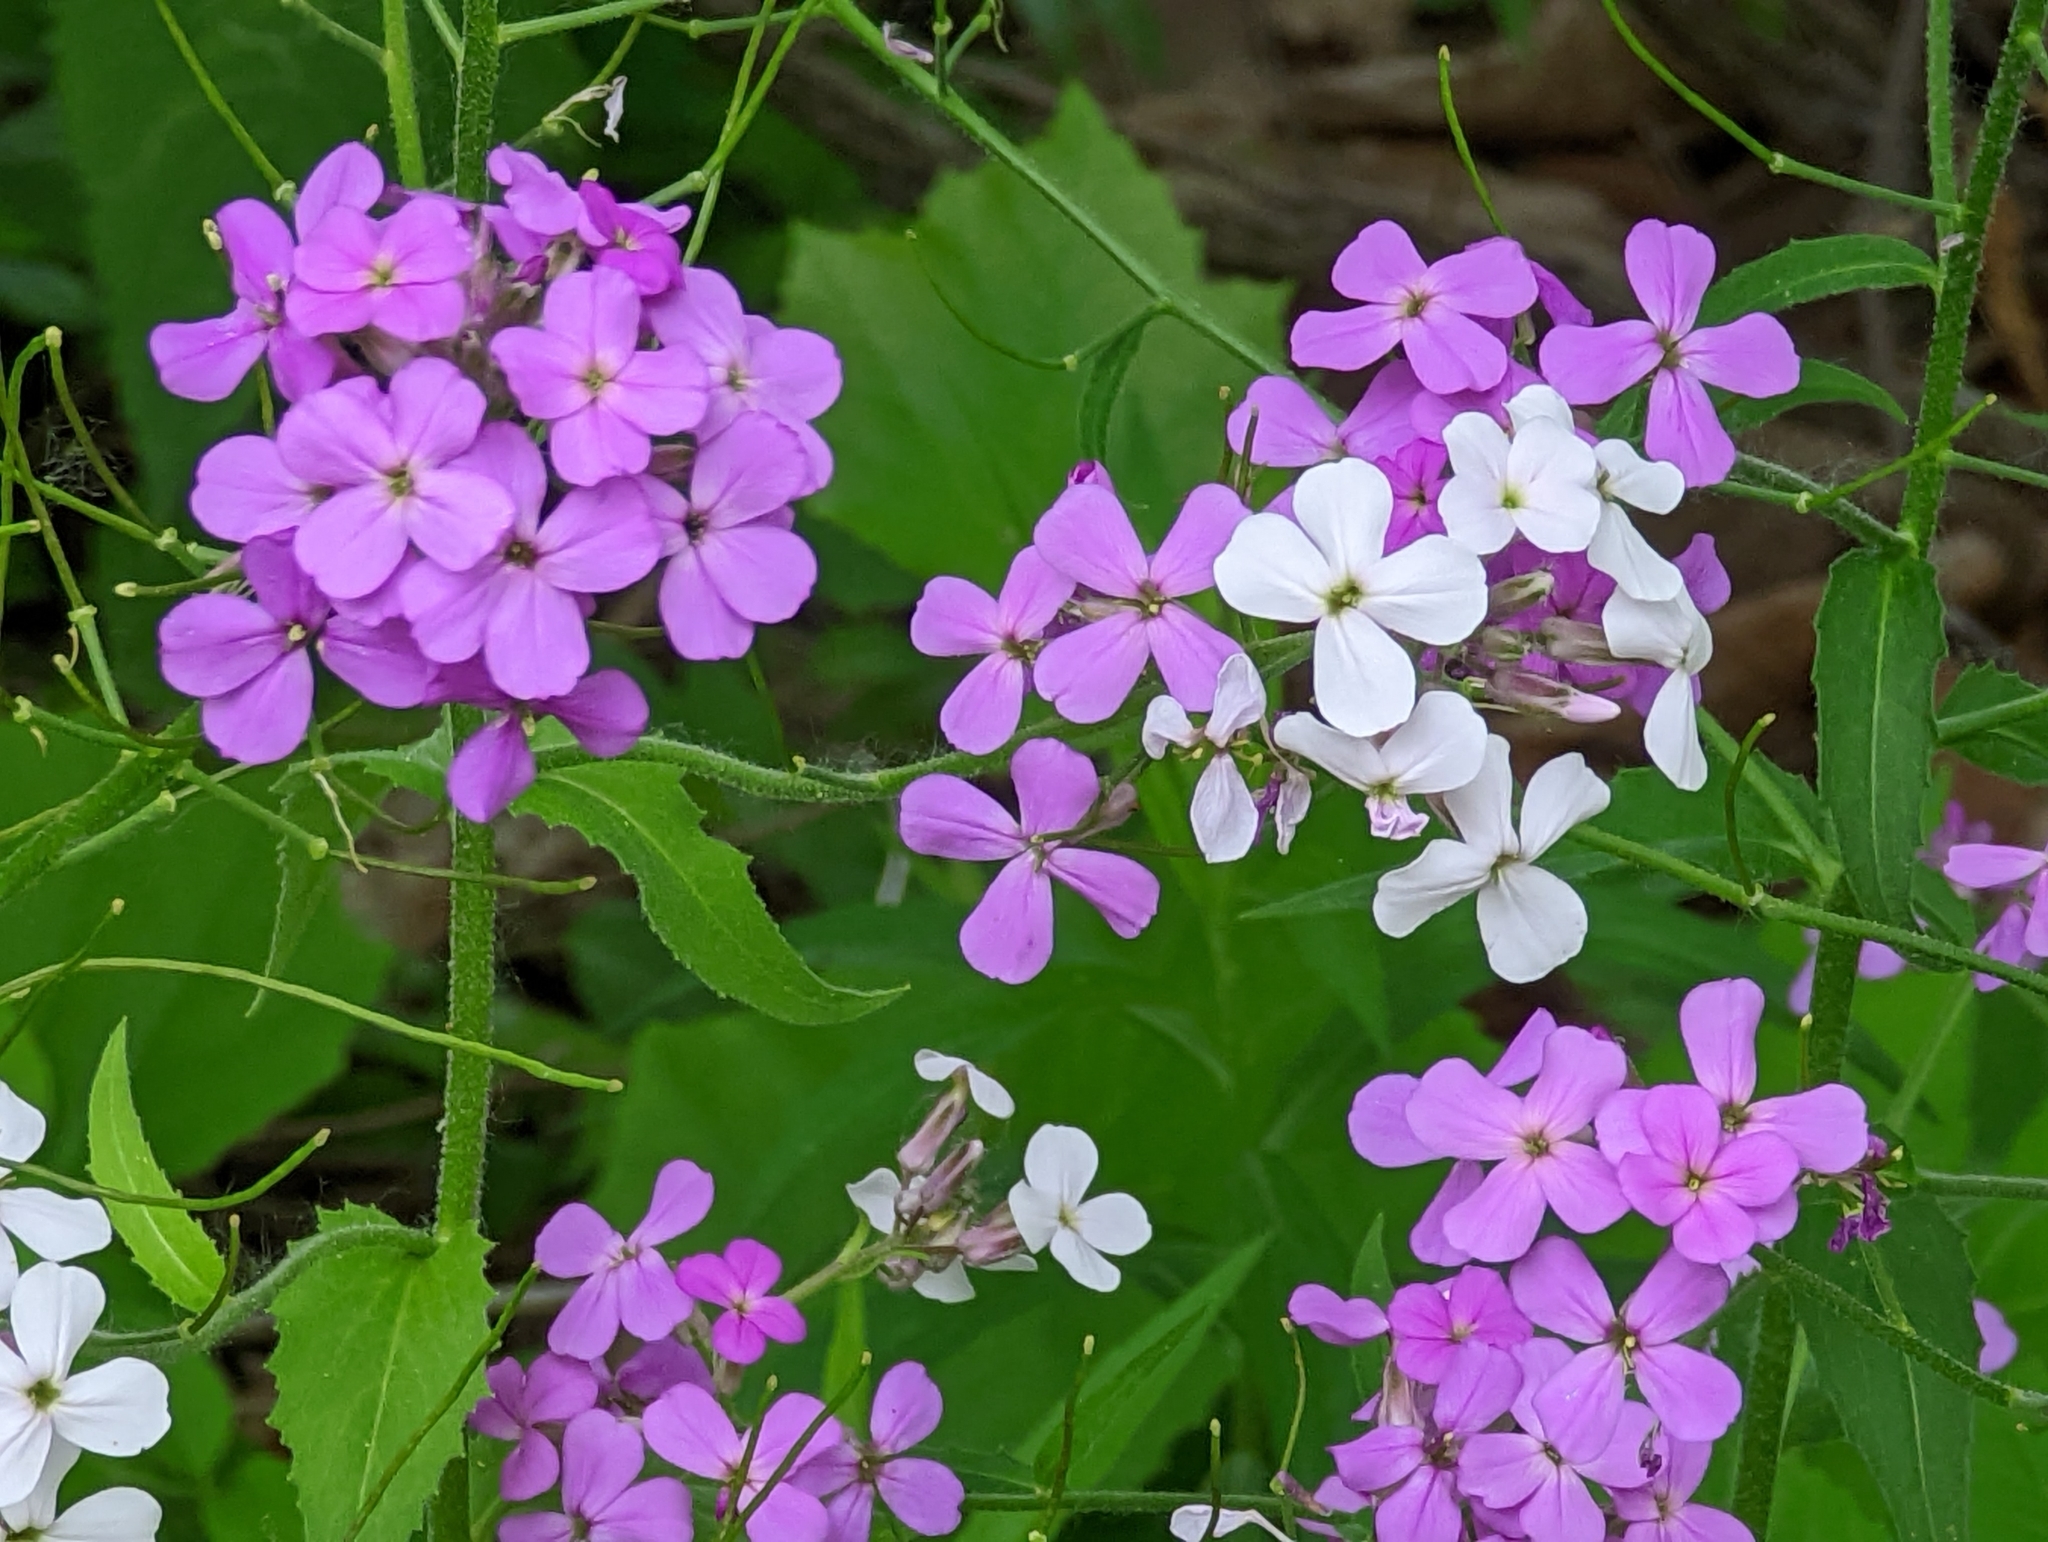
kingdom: Plantae
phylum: Tracheophyta
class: Magnoliopsida
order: Brassicales
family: Brassicaceae
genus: Hesperis
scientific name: Hesperis matronalis
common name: Dame's-violet
